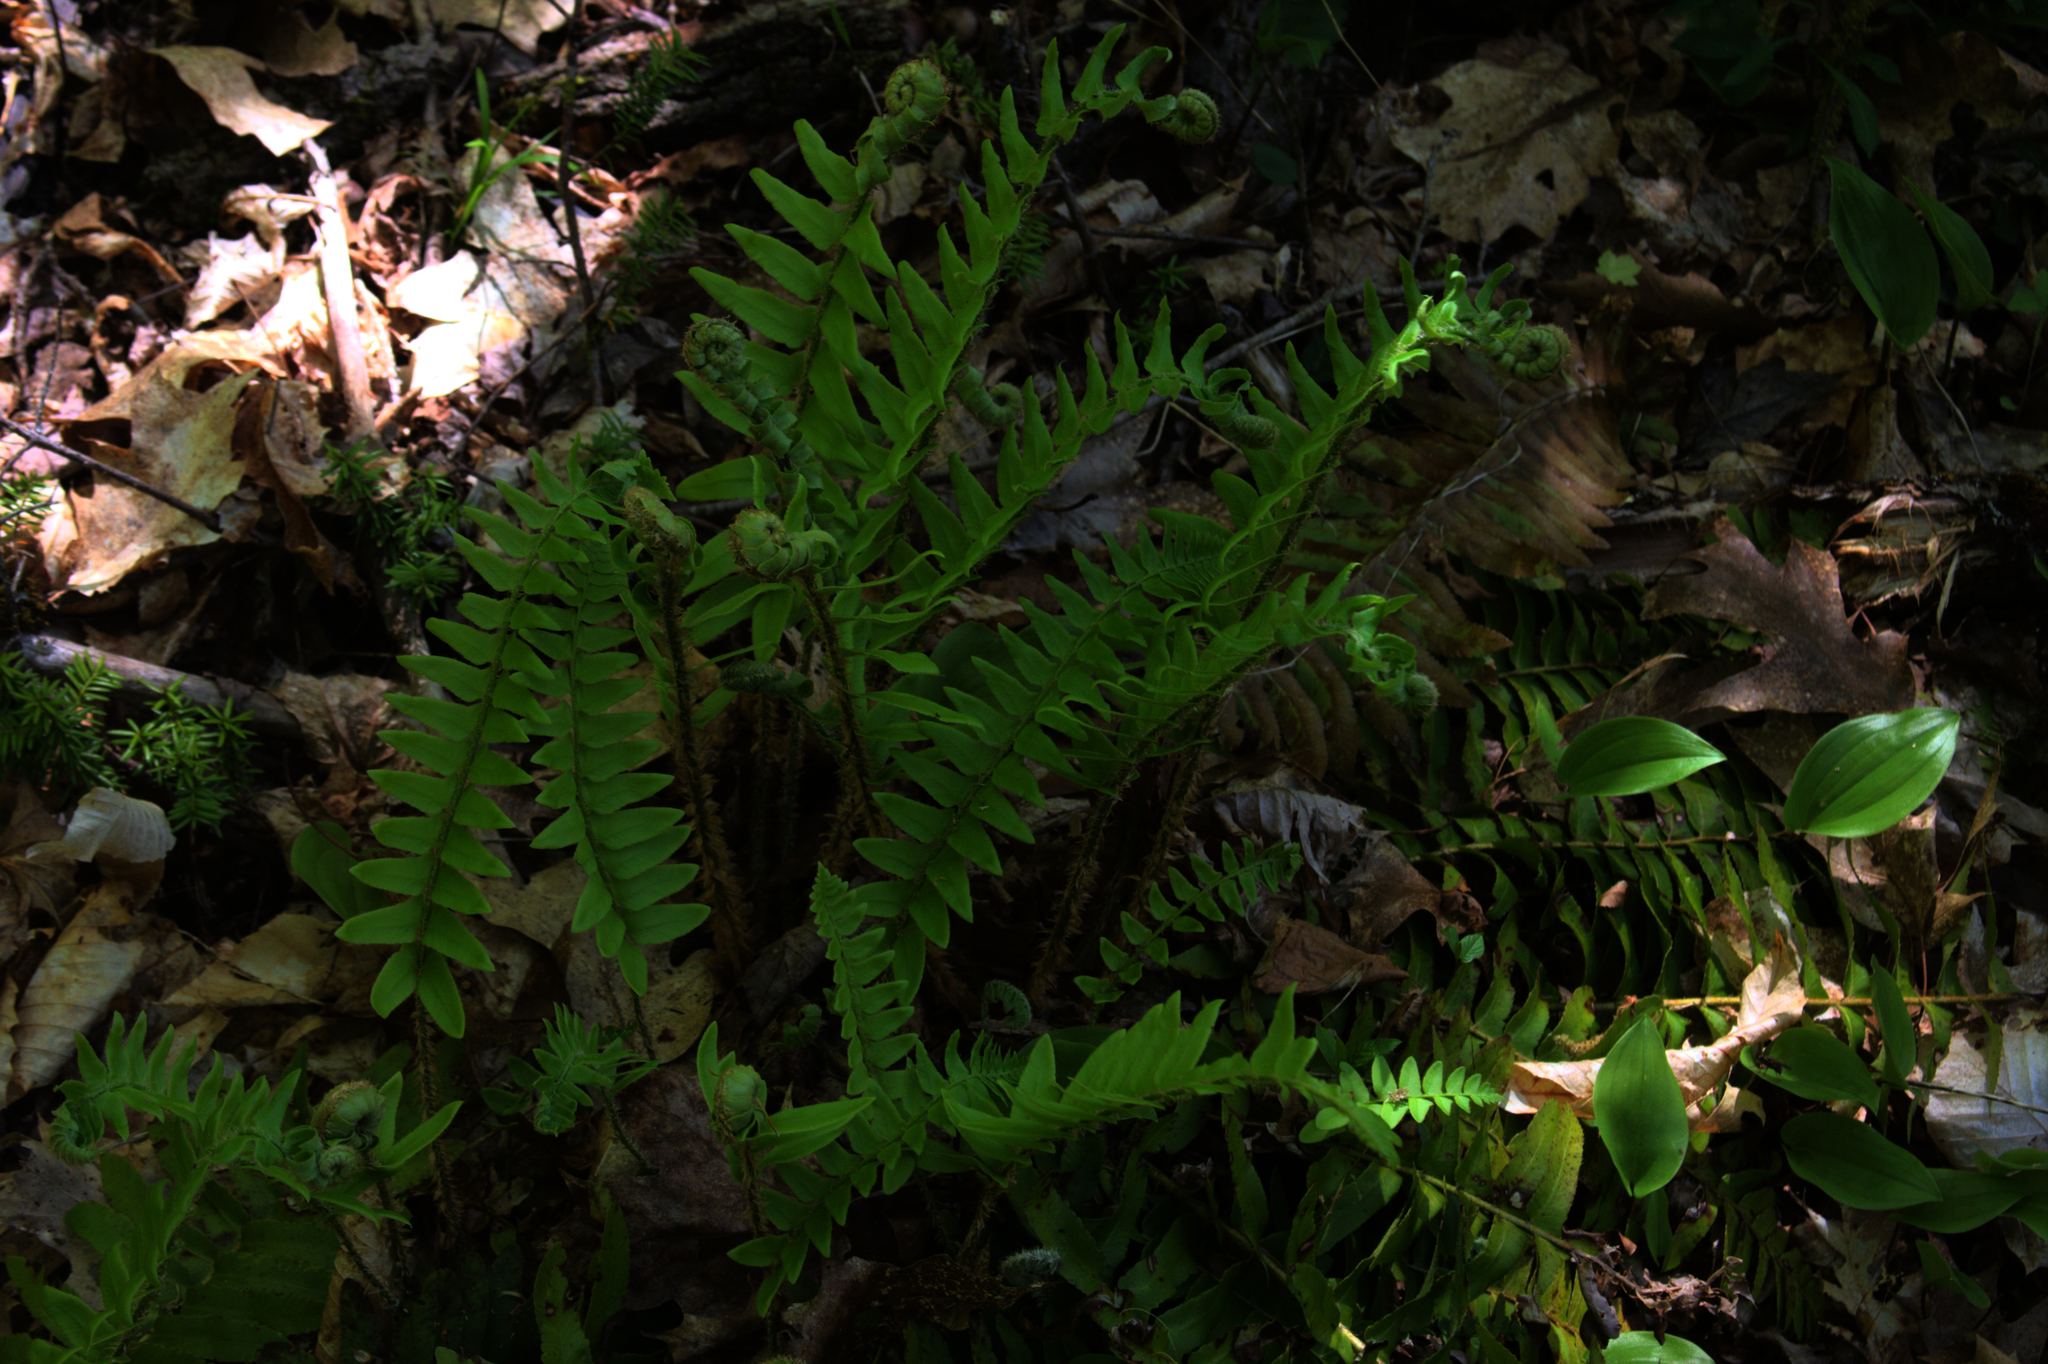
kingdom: Plantae
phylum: Tracheophyta
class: Liliopsida
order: Asparagales
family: Asparagaceae
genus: Maianthemum
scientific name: Maianthemum canadense
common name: False lily-of-the-valley
